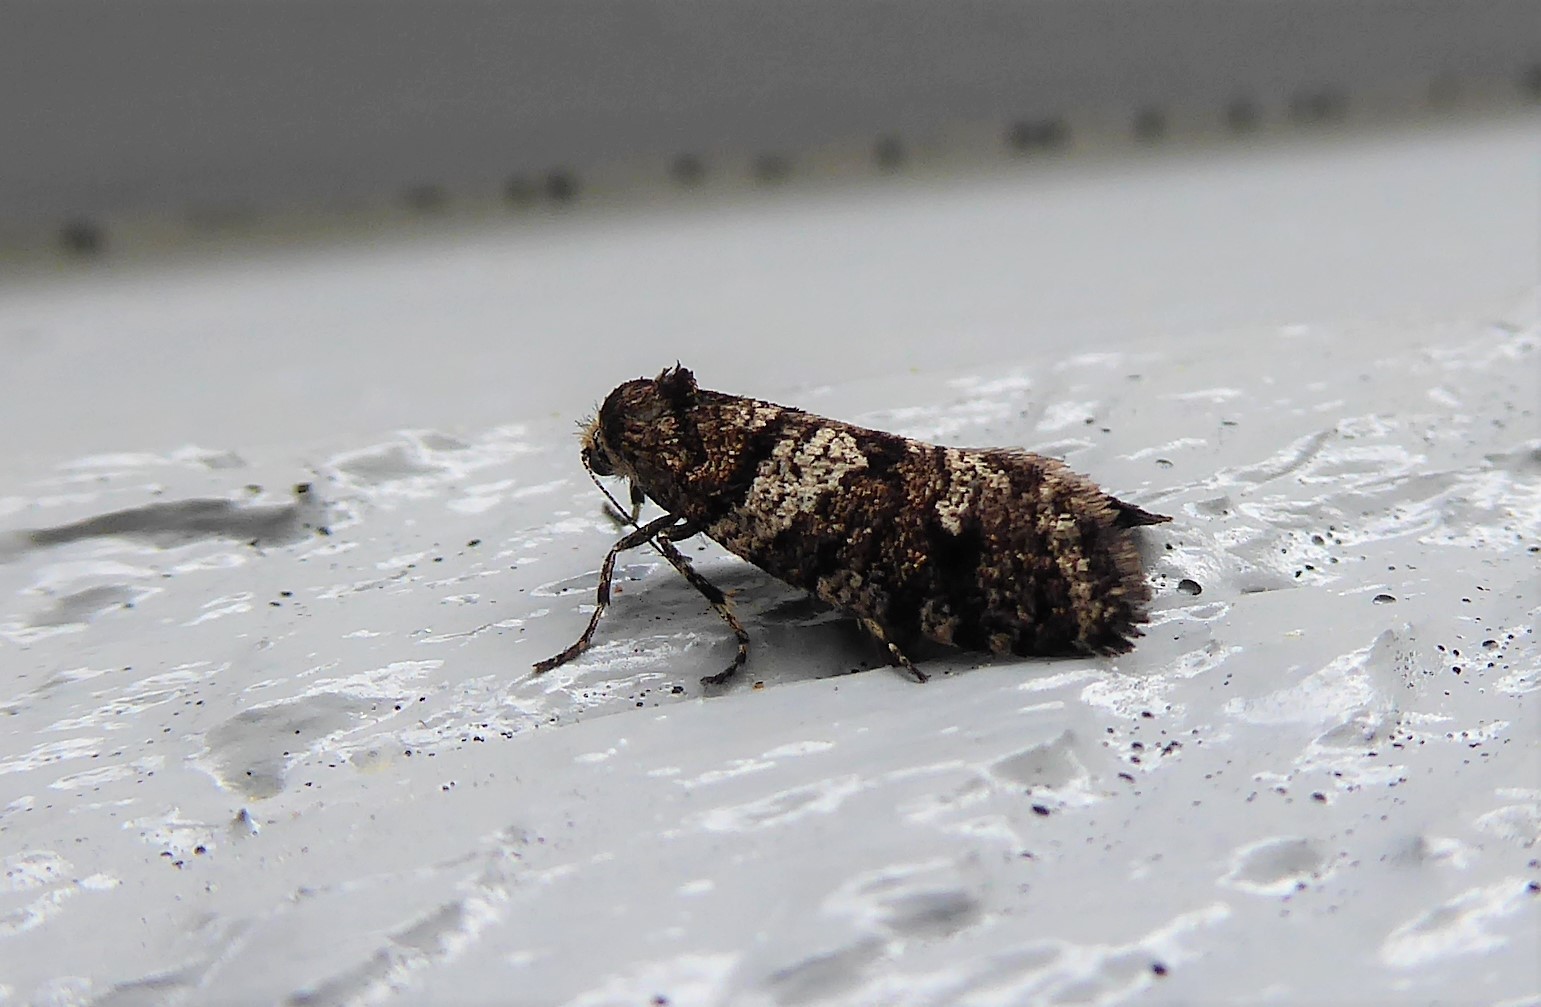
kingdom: Animalia
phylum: Arthropoda
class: Insecta
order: Lepidoptera
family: Psychidae
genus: Lepidoscia
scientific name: Lepidoscia heliochares
